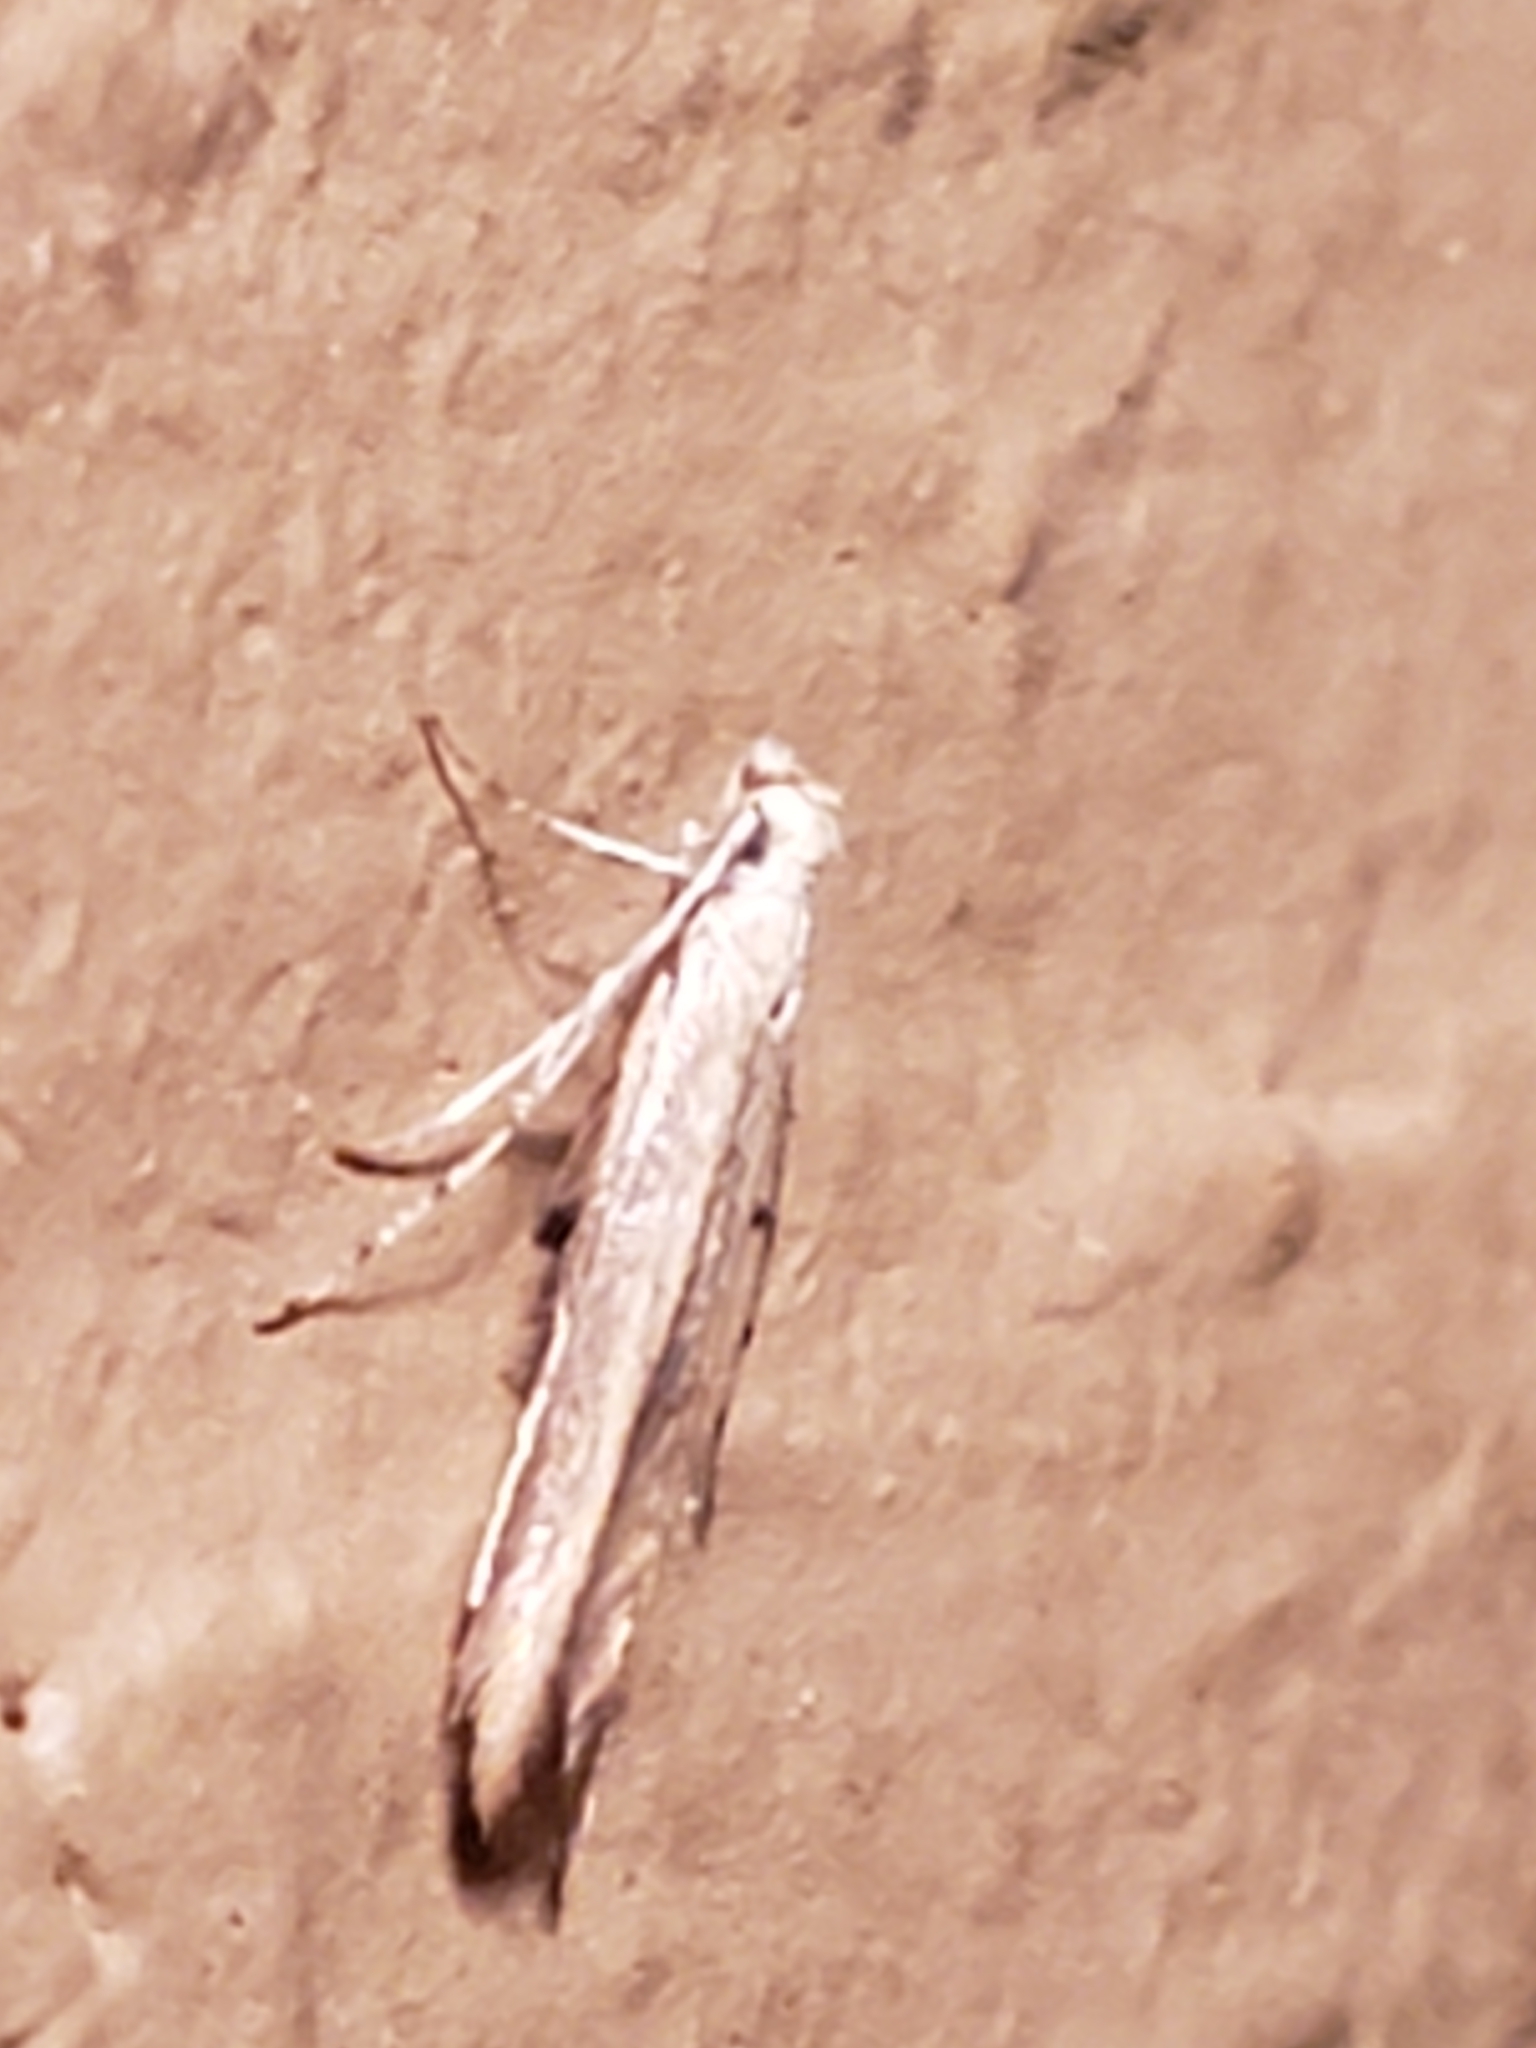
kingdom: Animalia
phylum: Arthropoda
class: Insecta
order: Lepidoptera
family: Gelechiidae
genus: Stereomita
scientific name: Stereomita andropogonis
